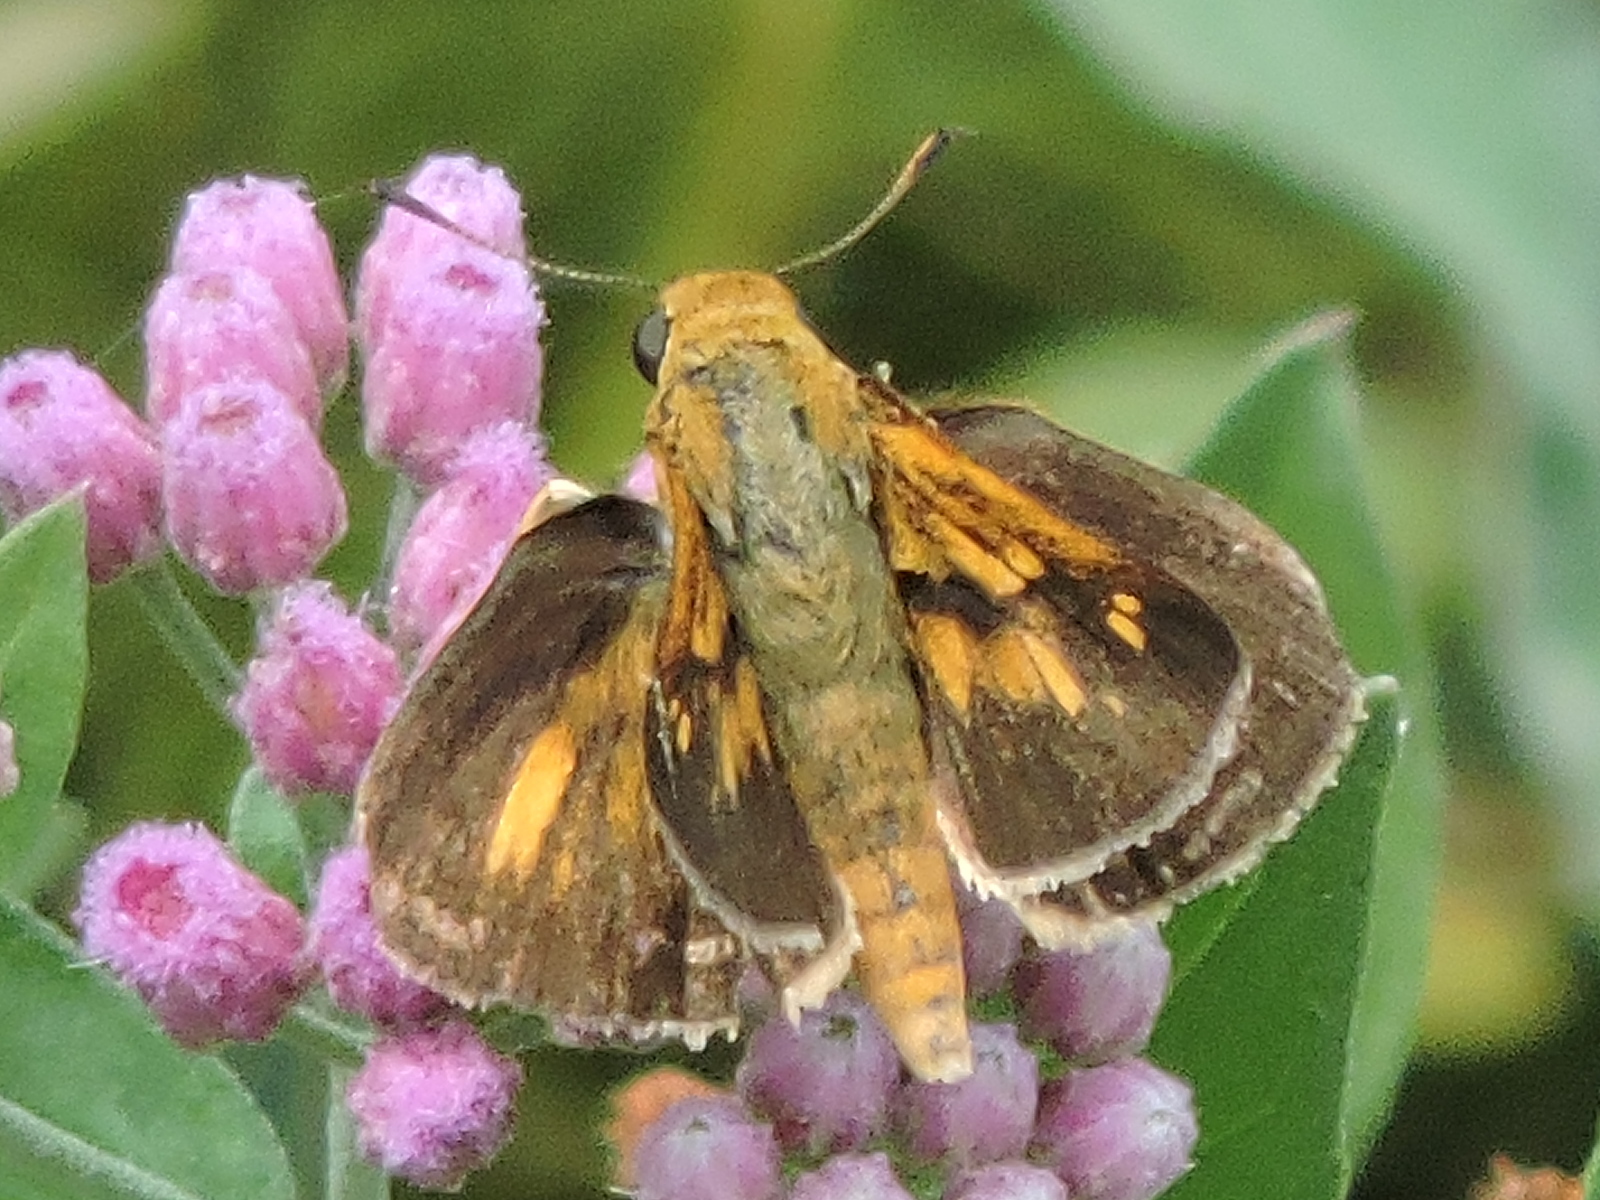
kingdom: Animalia
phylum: Arthropoda
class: Insecta
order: Lepidoptera
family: Hesperiidae
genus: Atalopedes
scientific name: Atalopedes
